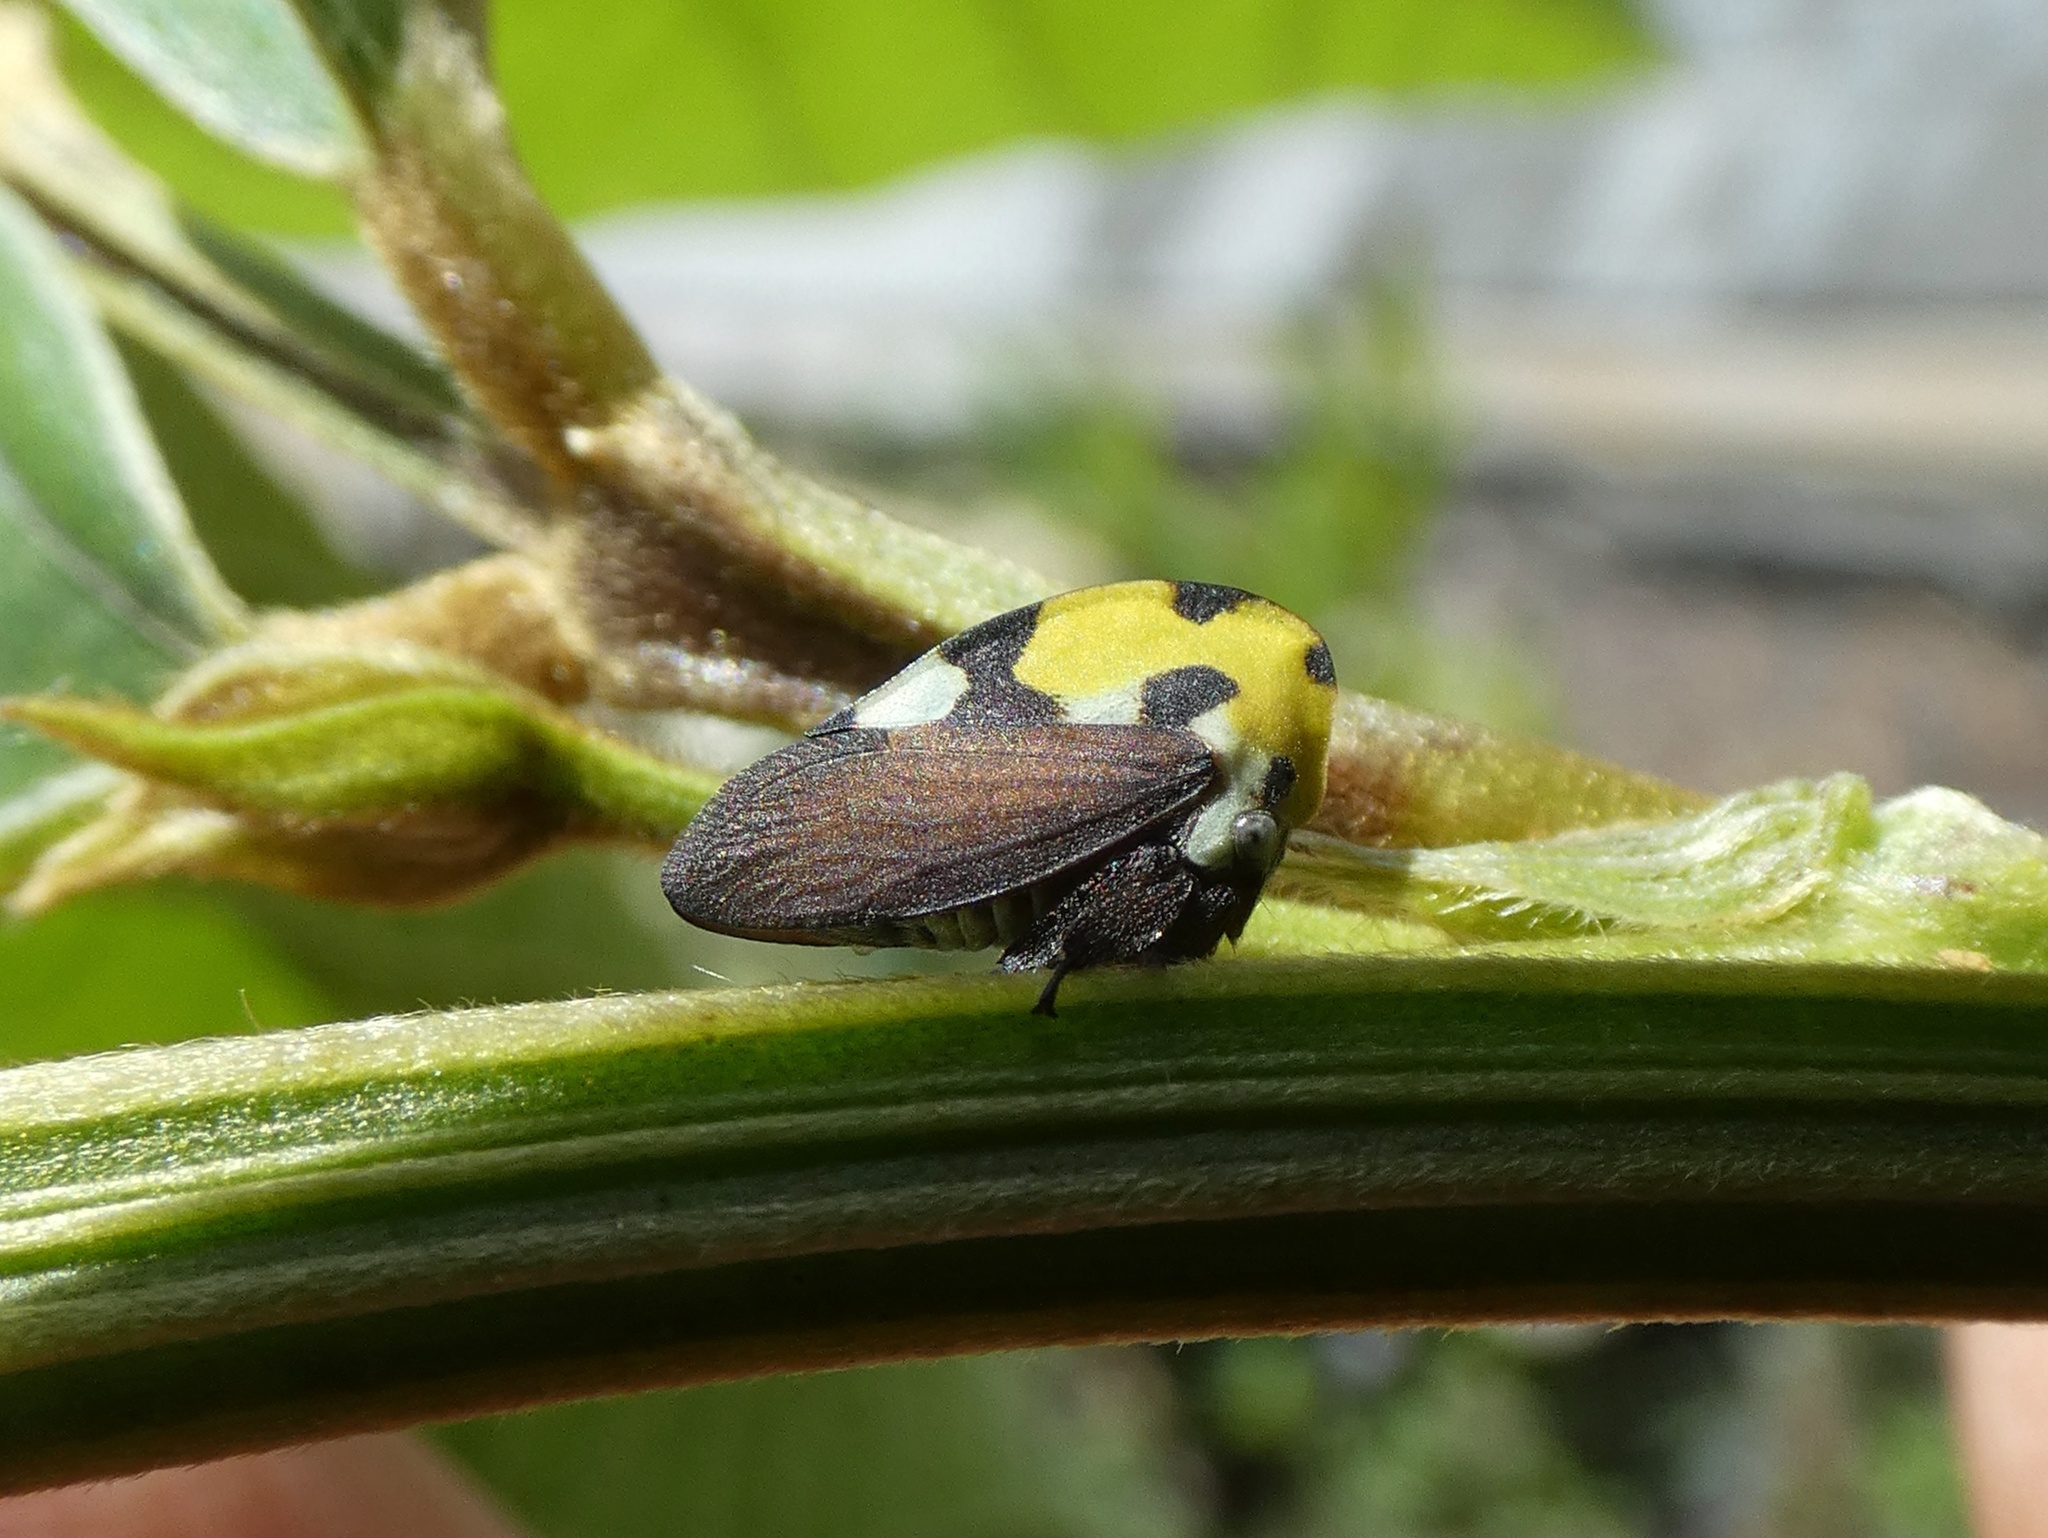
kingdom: Animalia
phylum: Arthropoda
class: Insecta
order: Hemiptera
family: Membracidae
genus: Membracis
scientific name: Membracis mexicana
